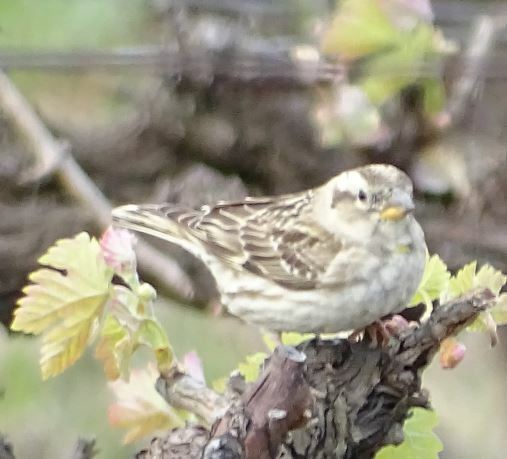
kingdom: Animalia
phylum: Chordata
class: Aves
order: Passeriformes
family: Passeridae
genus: Petronia
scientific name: Petronia petronia
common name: Rock sparrow
